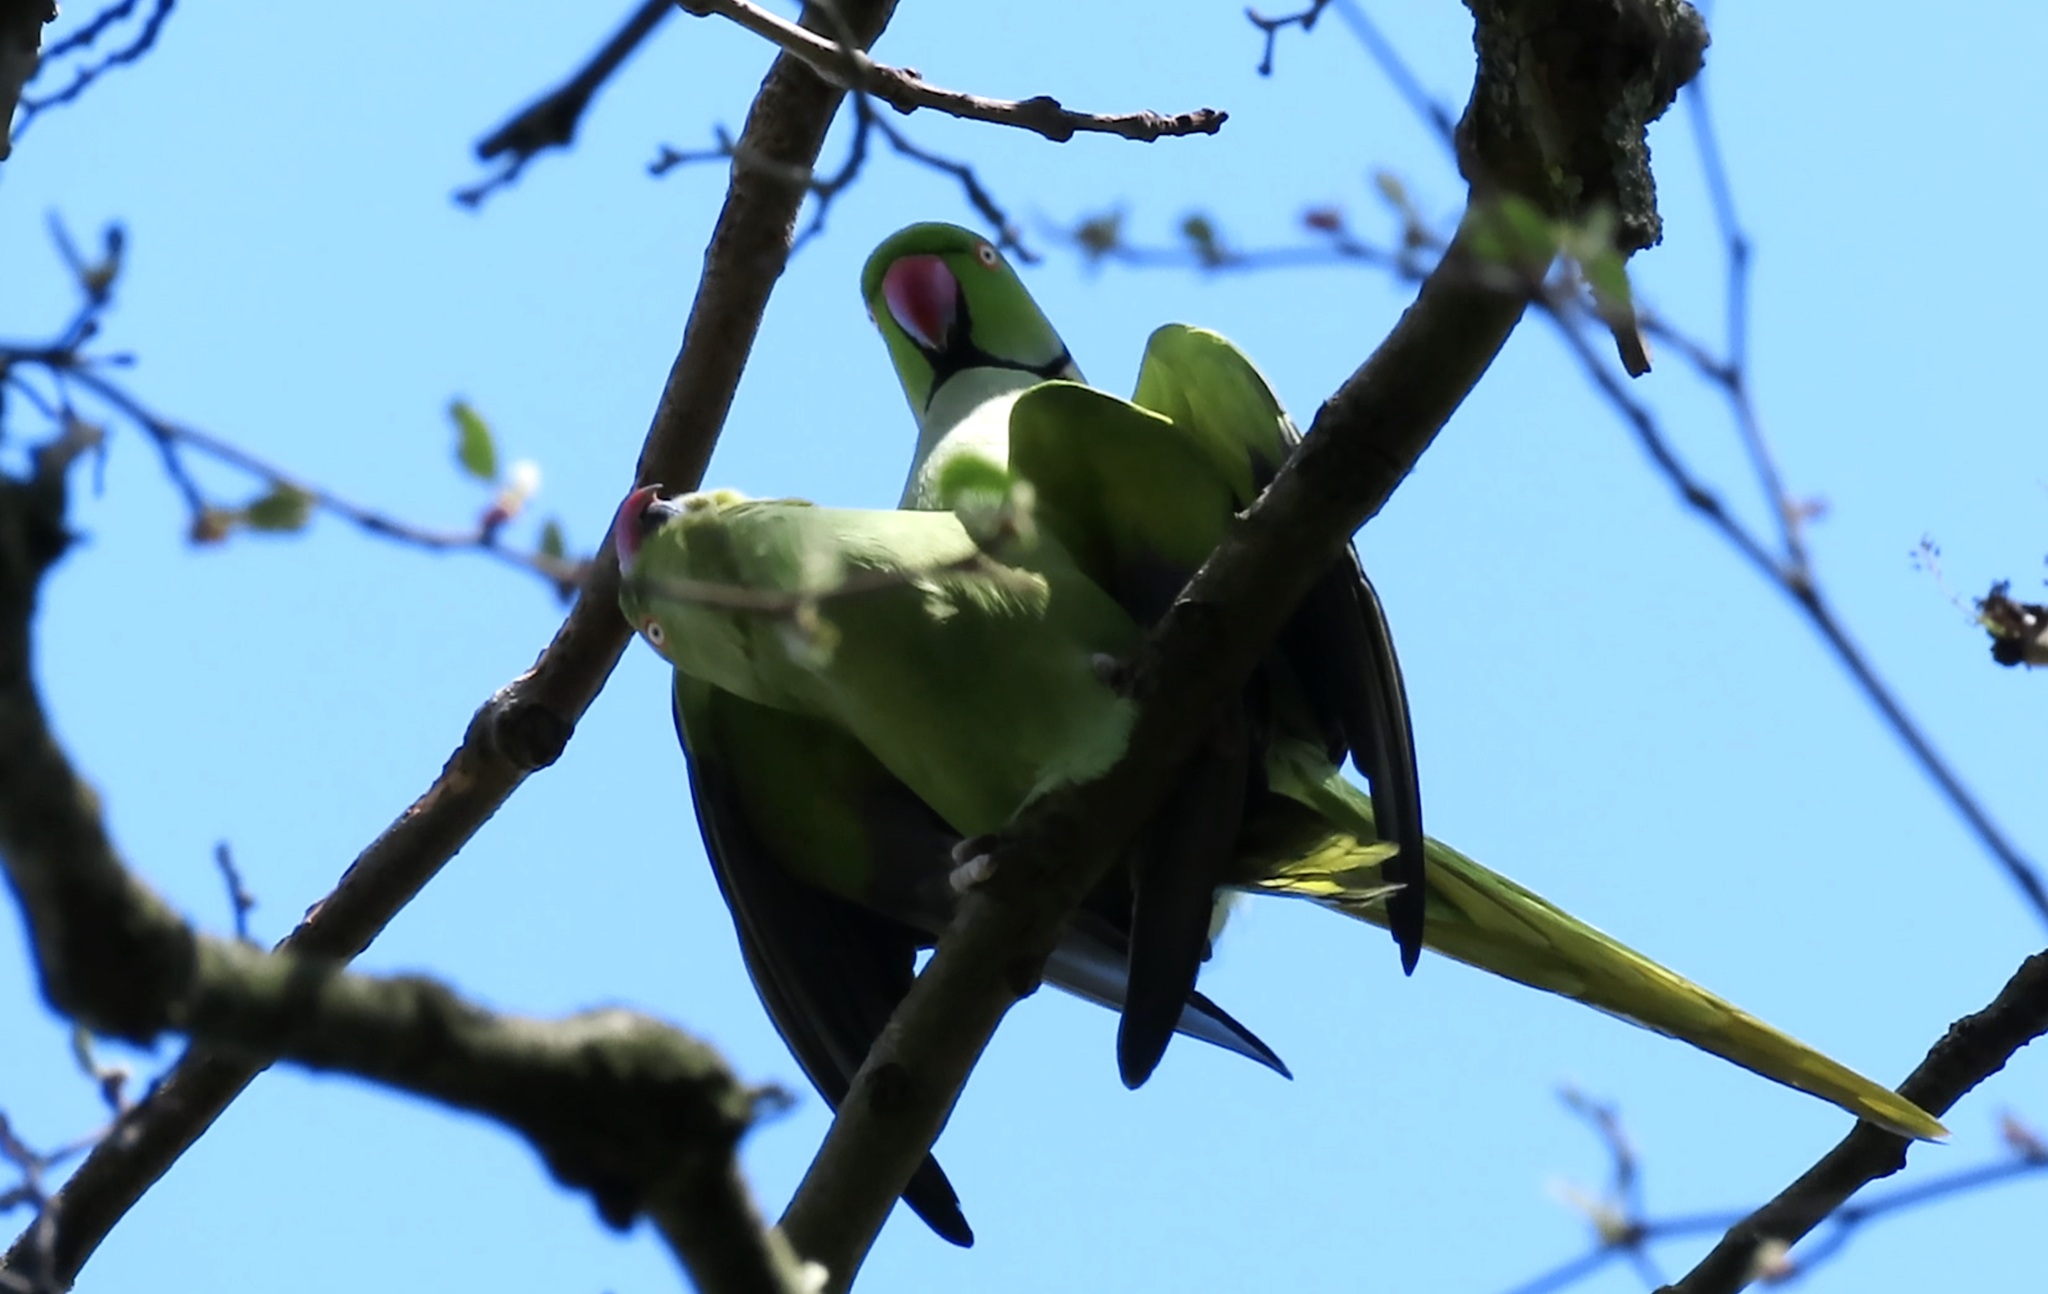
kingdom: Animalia
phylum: Chordata
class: Aves
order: Psittaciformes
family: Psittacidae
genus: Psittacula
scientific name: Psittacula krameri
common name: Rose-ringed parakeet
